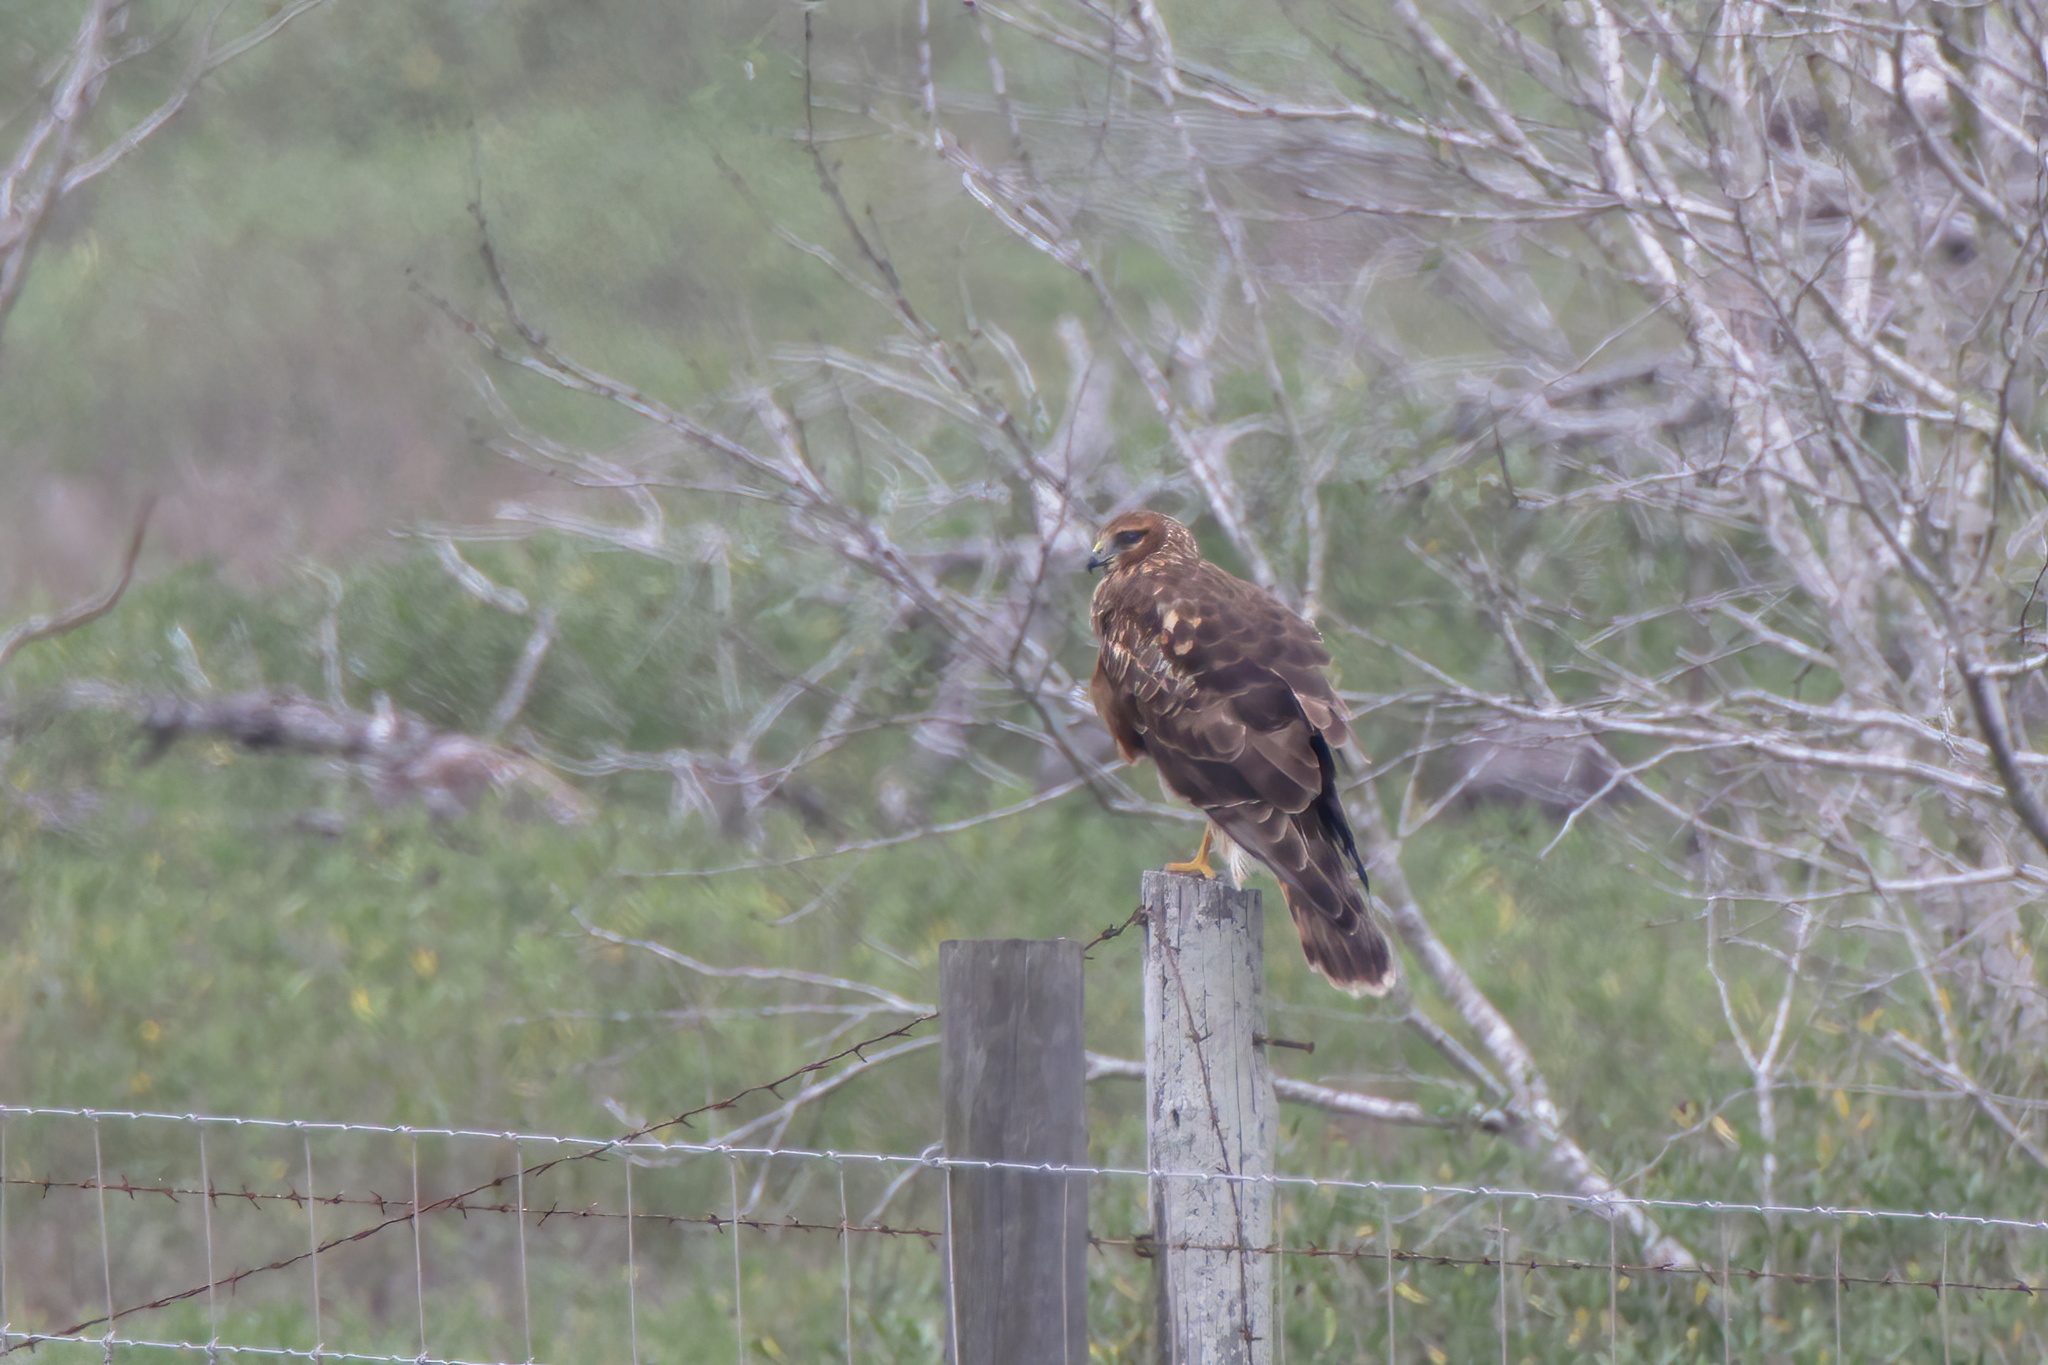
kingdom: Animalia
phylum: Chordata
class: Aves
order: Accipitriformes
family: Accipitridae
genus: Circus
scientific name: Circus cyaneus
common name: Hen harrier
